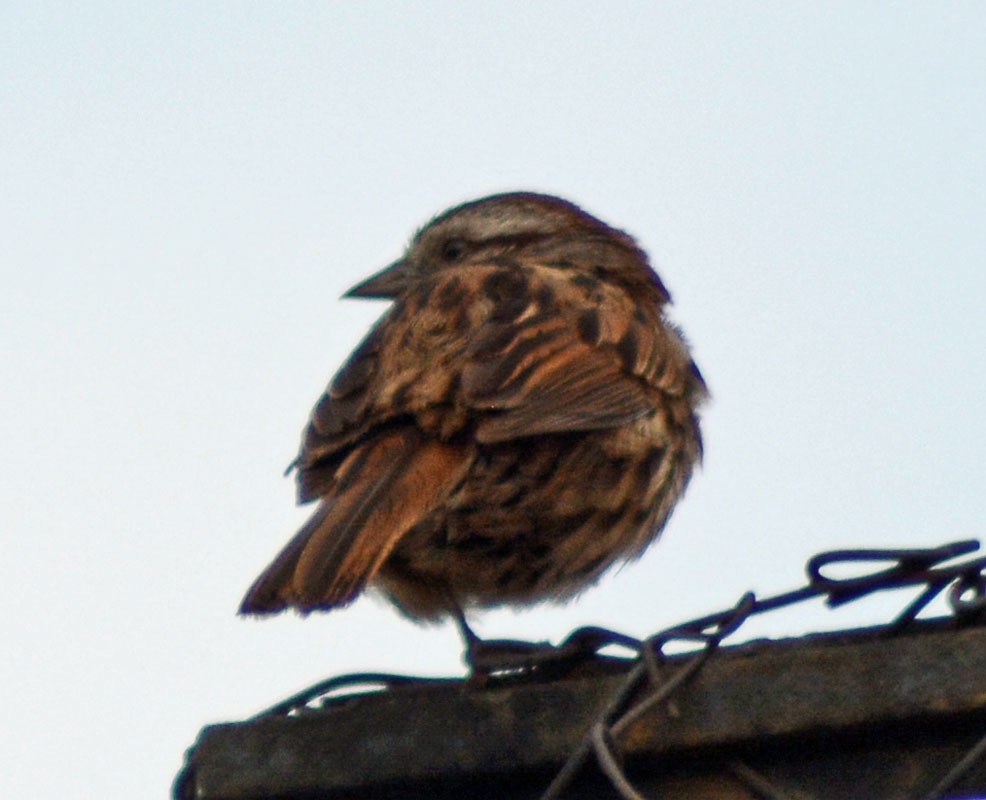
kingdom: Animalia
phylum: Chordata
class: Aves
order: Passeriformes
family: Passerellidae
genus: Melospiza
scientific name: Melospiza melodia
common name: Song sparrow
